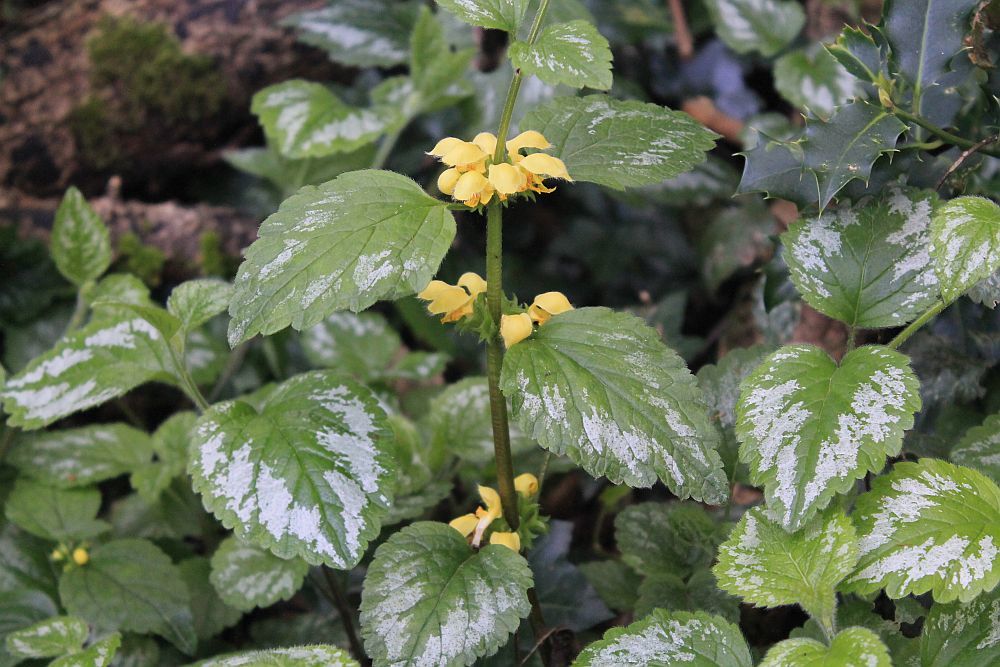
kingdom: Plantae
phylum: Tracheophyta
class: Magnoliopsida
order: Lamiales
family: Lamiaceae
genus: Lamium
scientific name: Lamium galeobdolon
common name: Yellow archangel
